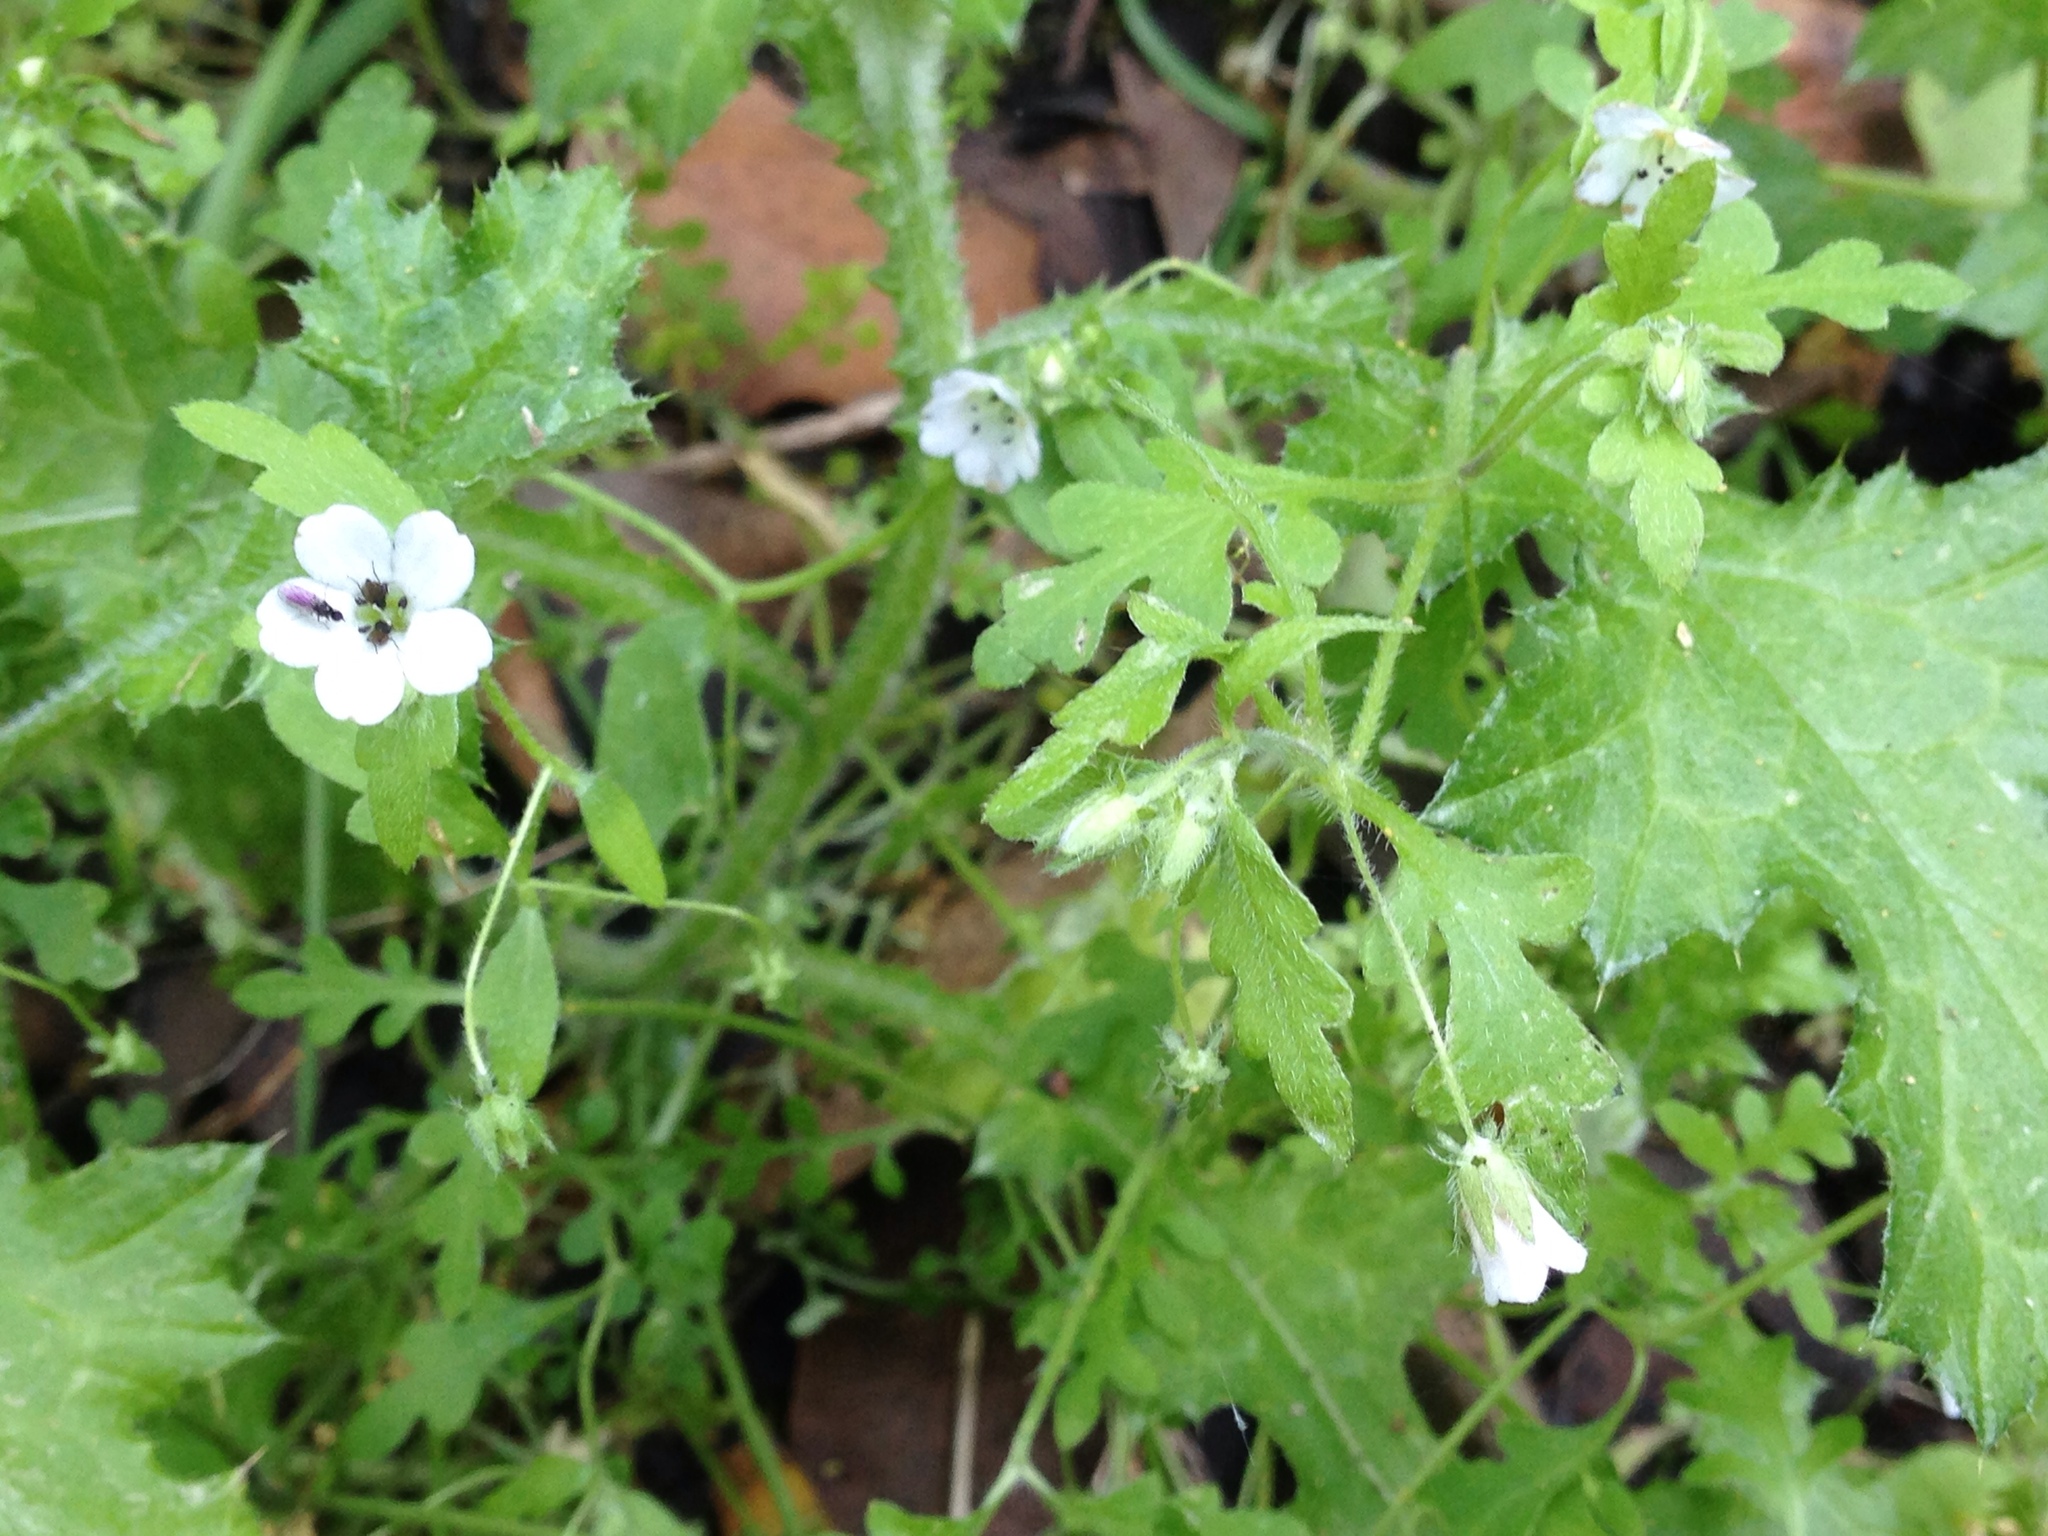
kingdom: Plantae
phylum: Tracheophyta
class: Magnoliopsida
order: Boraginales
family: Hydrophyllaceae
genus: Nemophila
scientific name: Nemophila heterophylla
